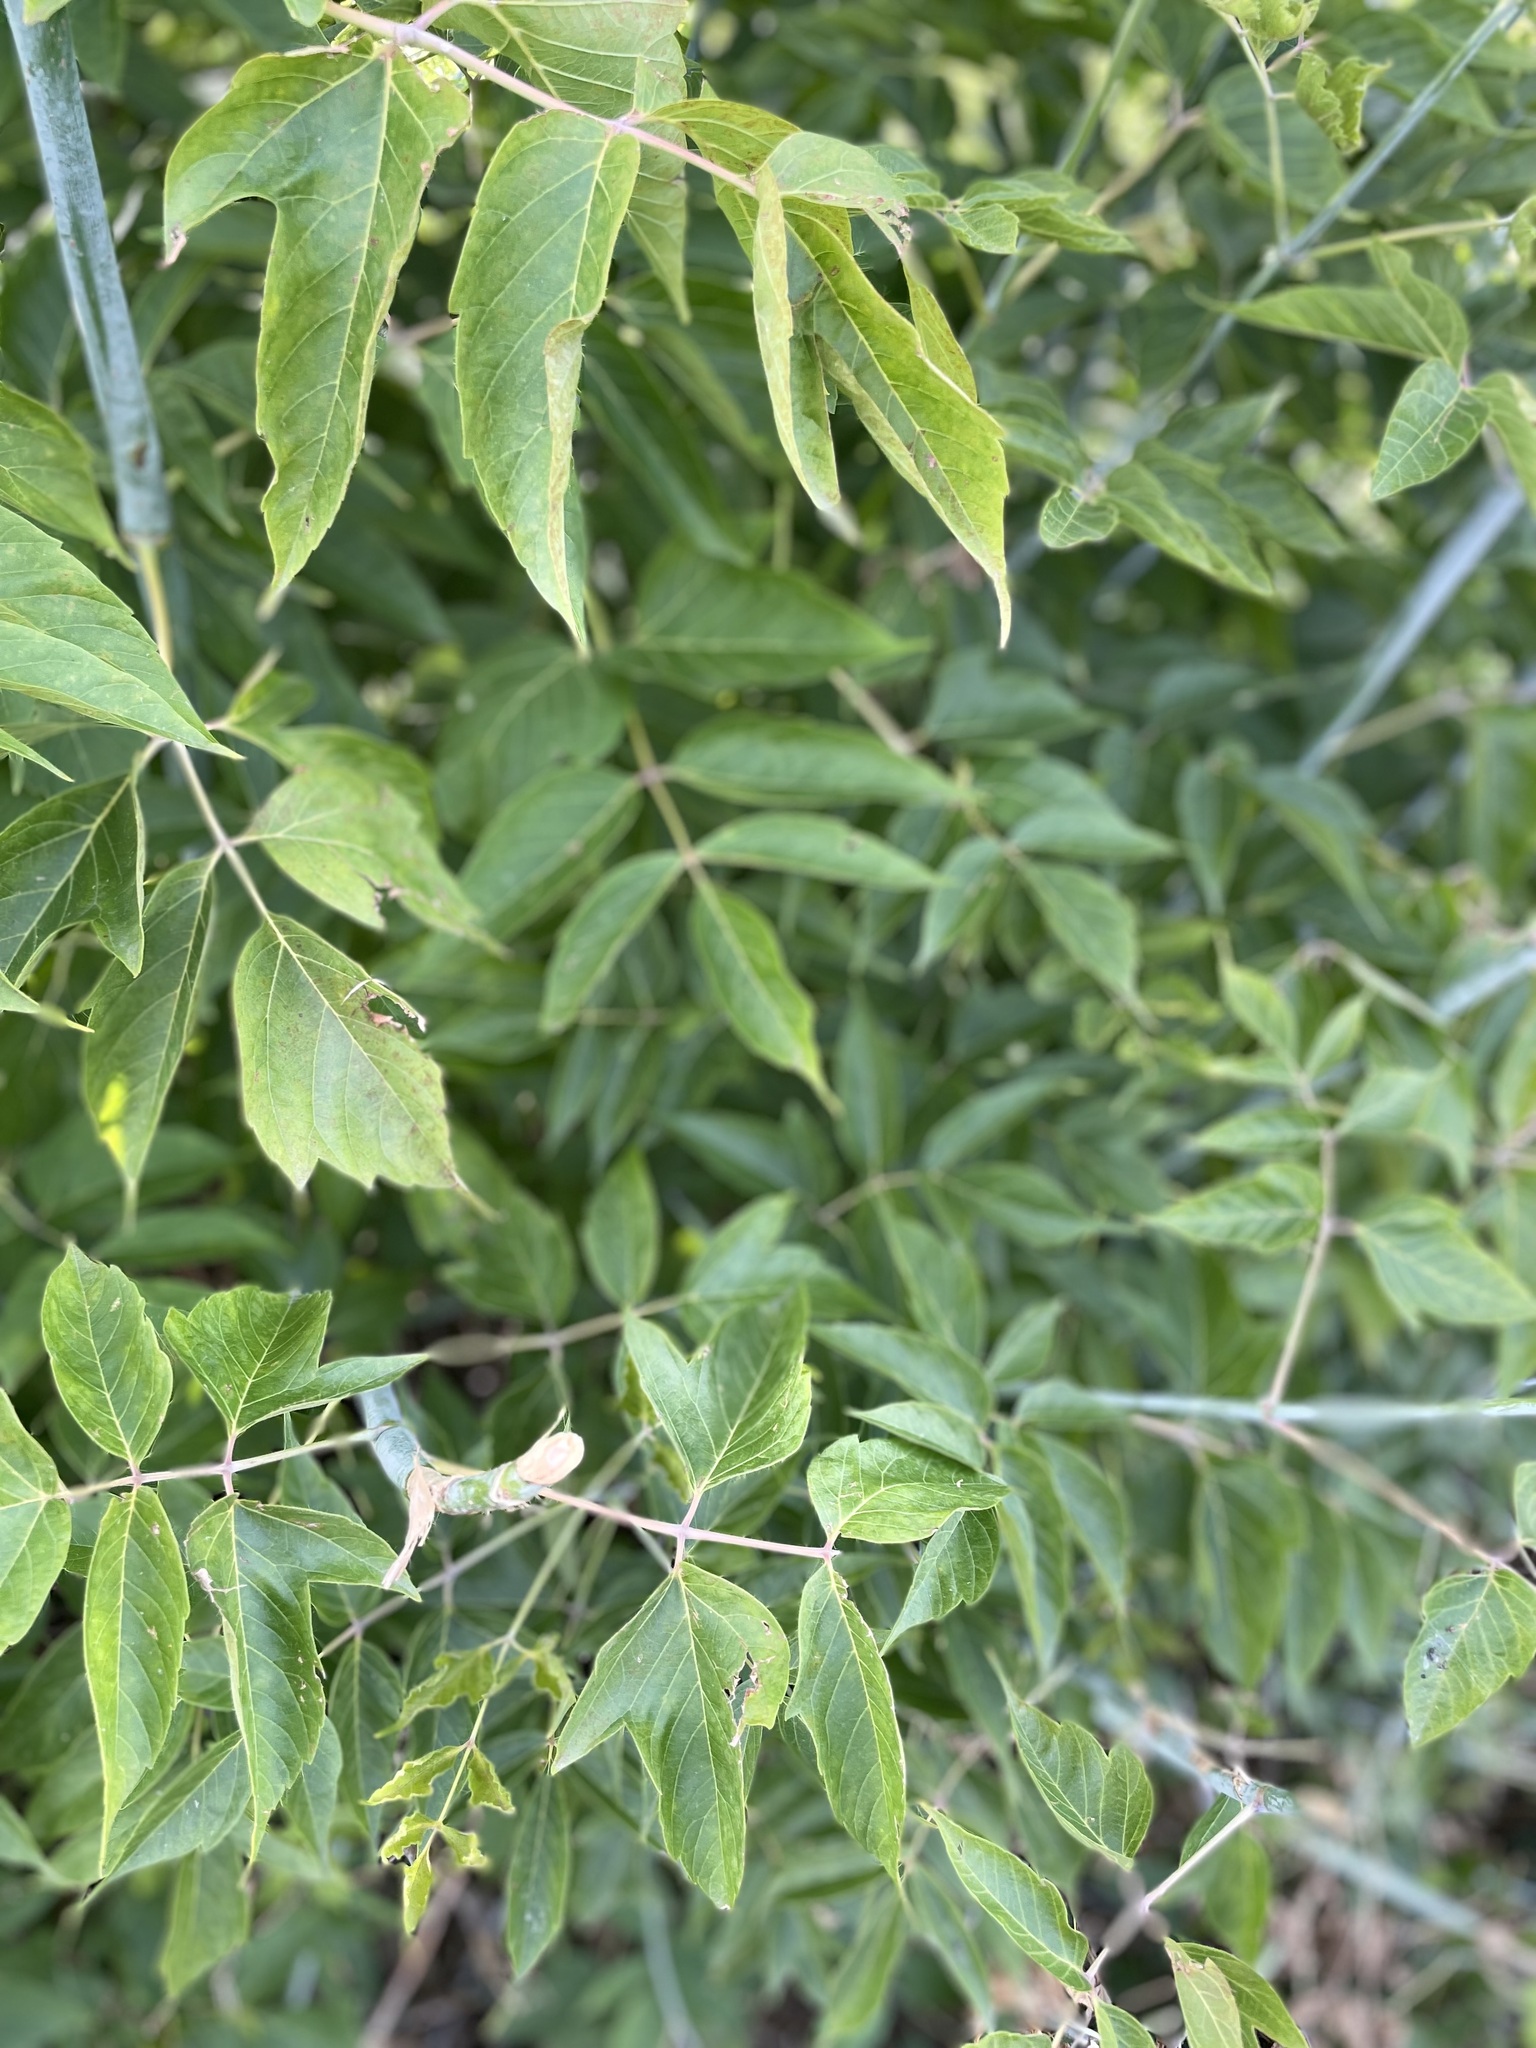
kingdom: Plantae
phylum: Tracheophyta
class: Magnoliopsida
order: Sapindales
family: Sapindaceae
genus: Acer
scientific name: Acer negundo
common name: Ashleaf maple
